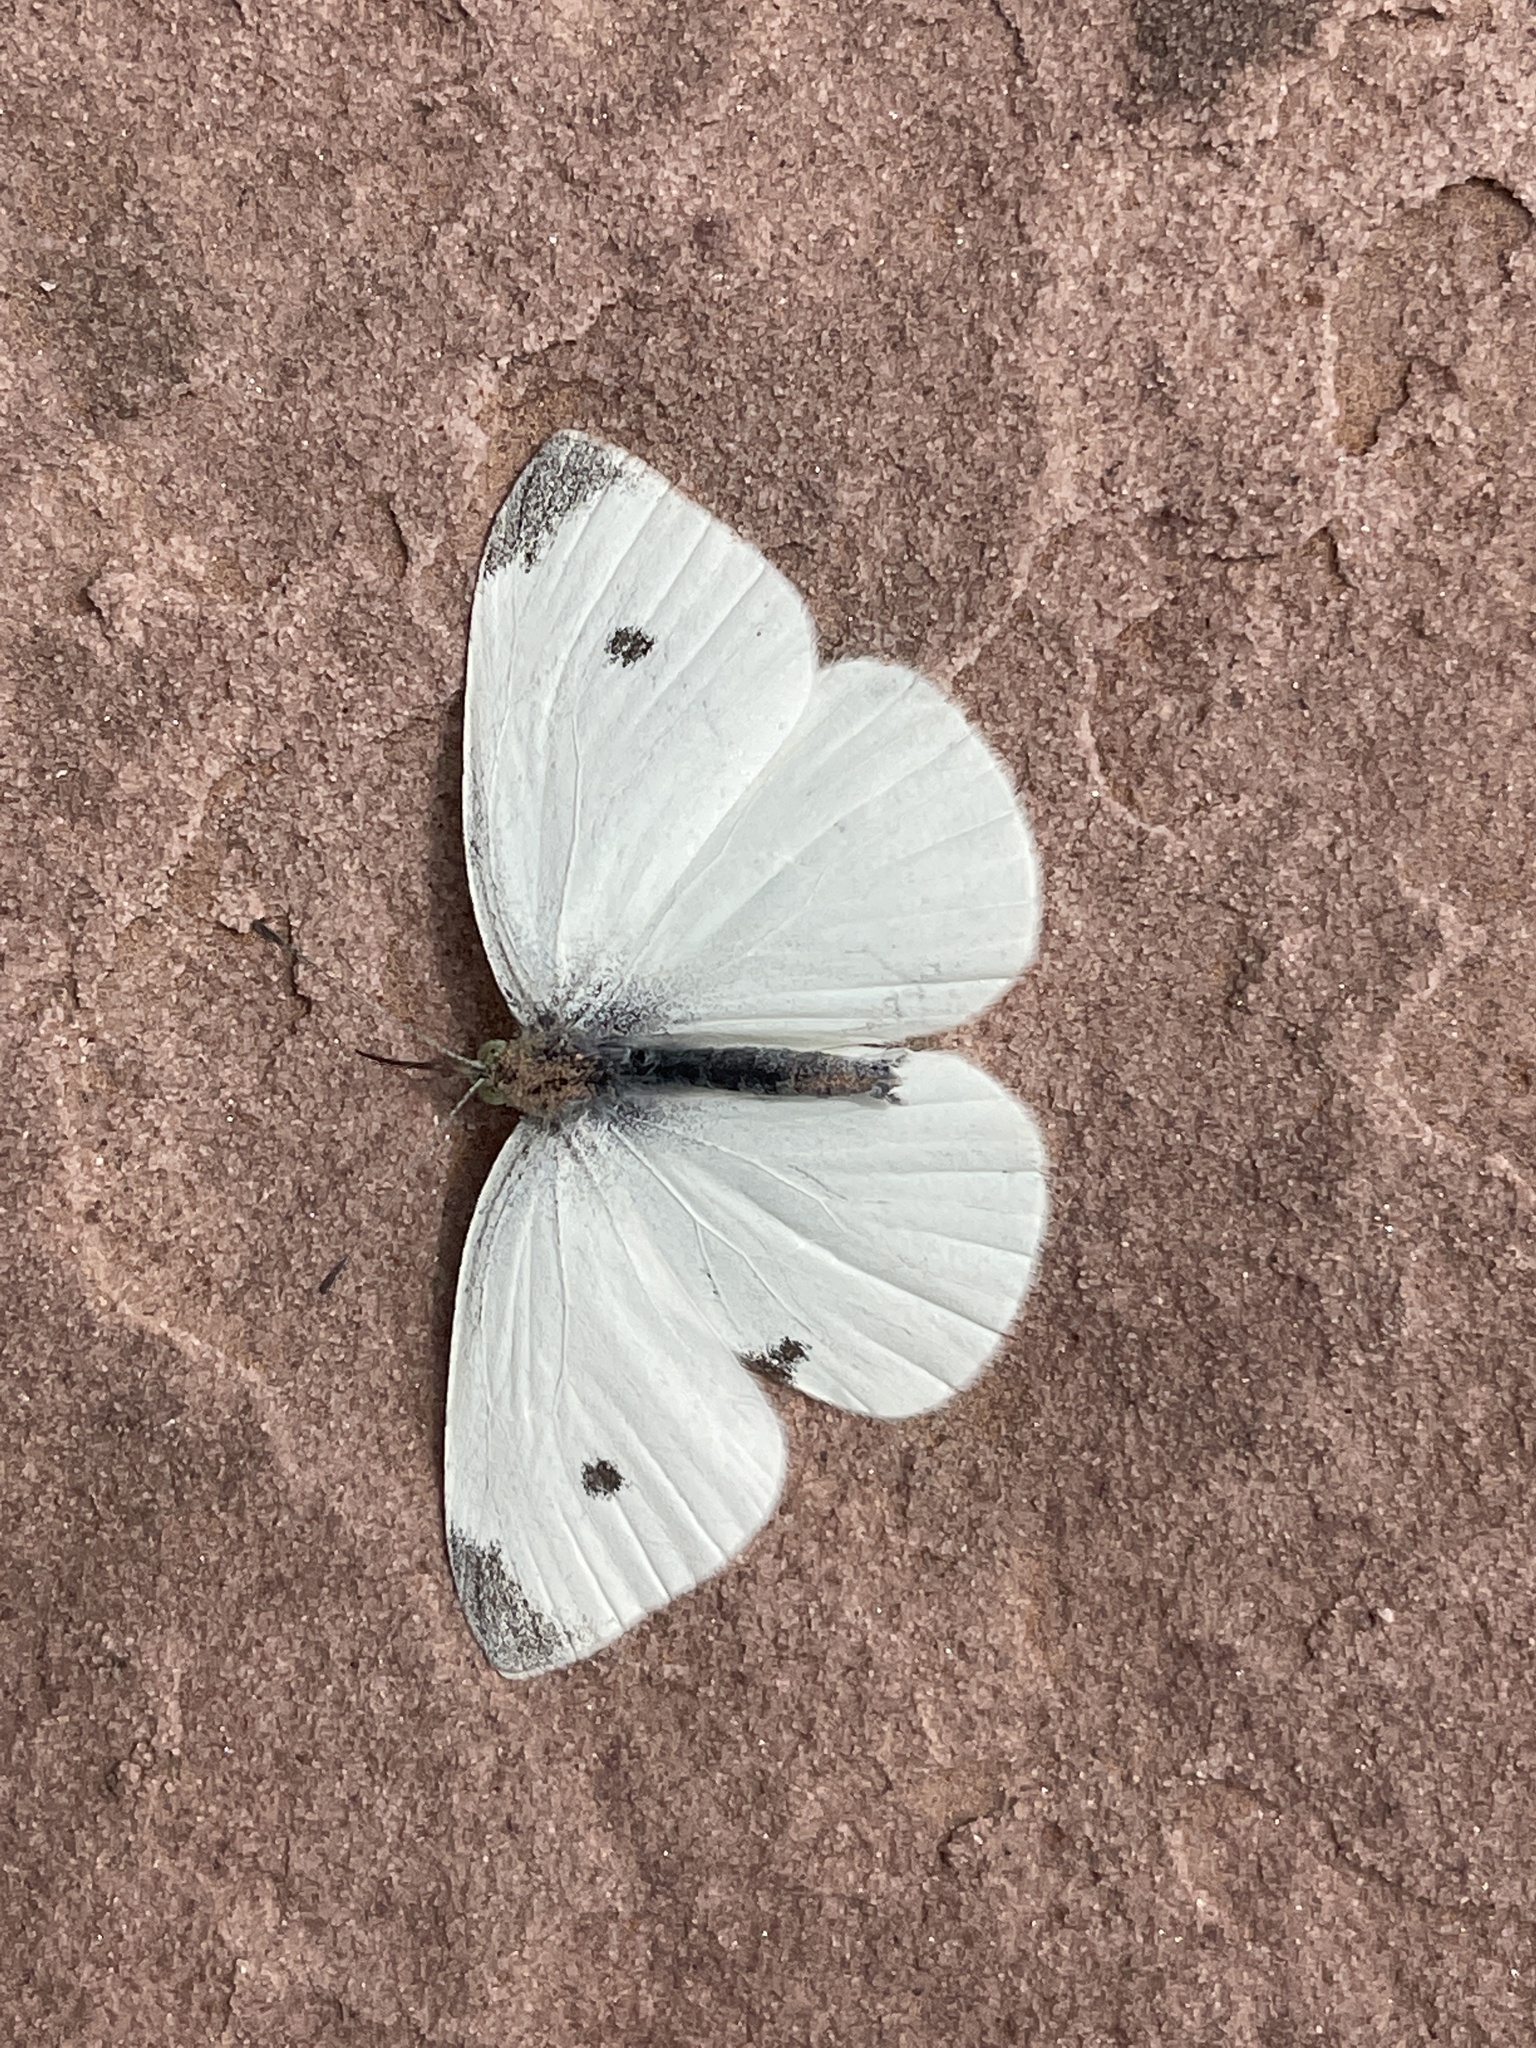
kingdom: Animalia
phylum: Arthropoda
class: Insecta
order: Lepidoptera
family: Pieridae
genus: Pieris
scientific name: Pieris rapae
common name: Small white
